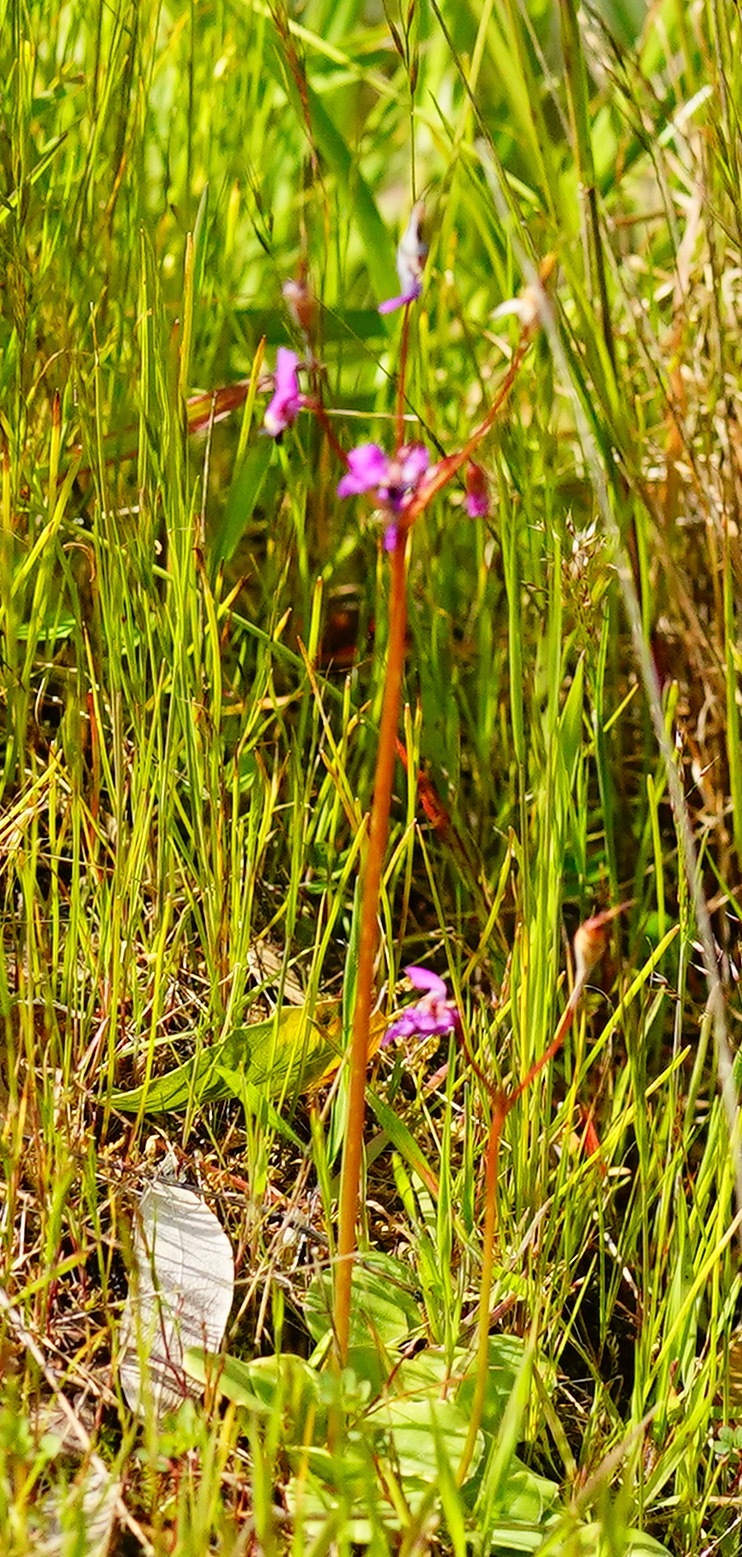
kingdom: Plantae
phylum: Tracheophyta
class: Magnoliopsida
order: Ericales
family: Primulaceae
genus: Dodecatheon
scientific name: Dodecatheon hendersonii
